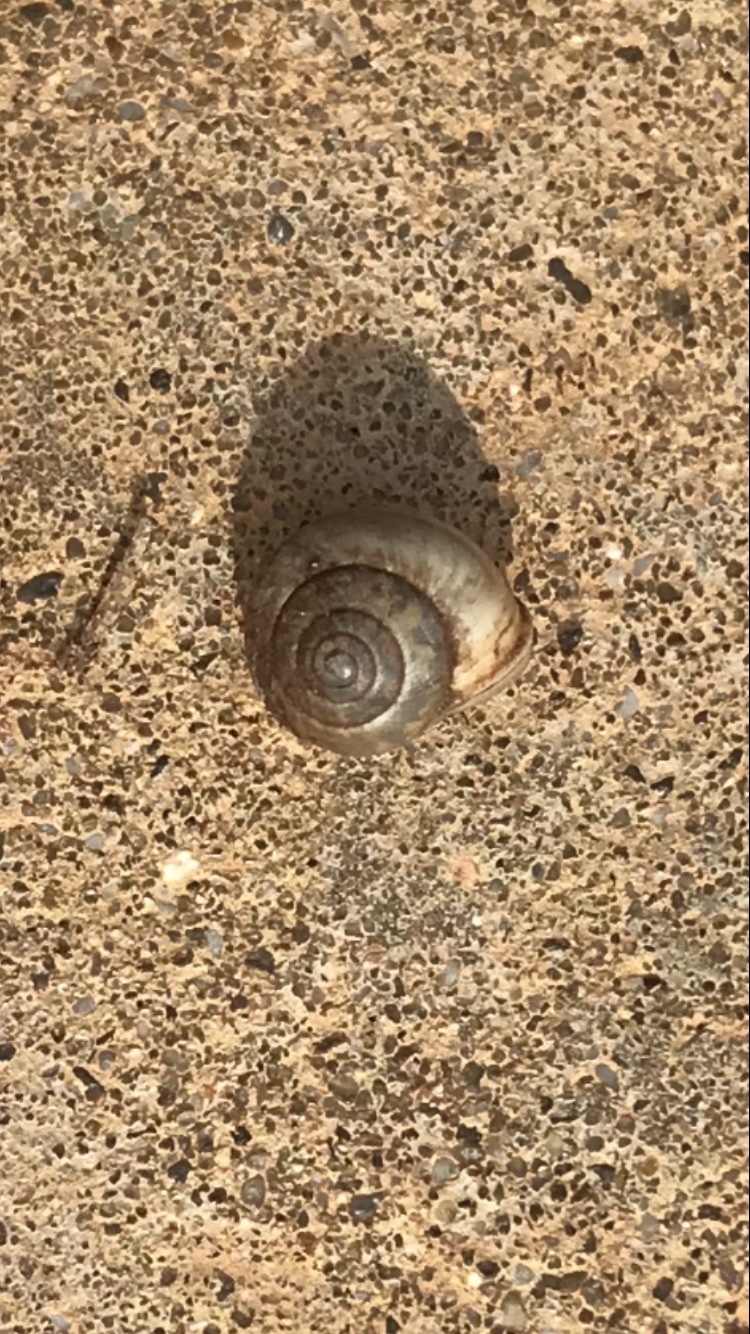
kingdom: Animalia
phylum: Mollusca
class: Gastropoda
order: Cycloneritida
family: Helicinidae
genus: Helicina
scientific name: Helicina orbiculata
